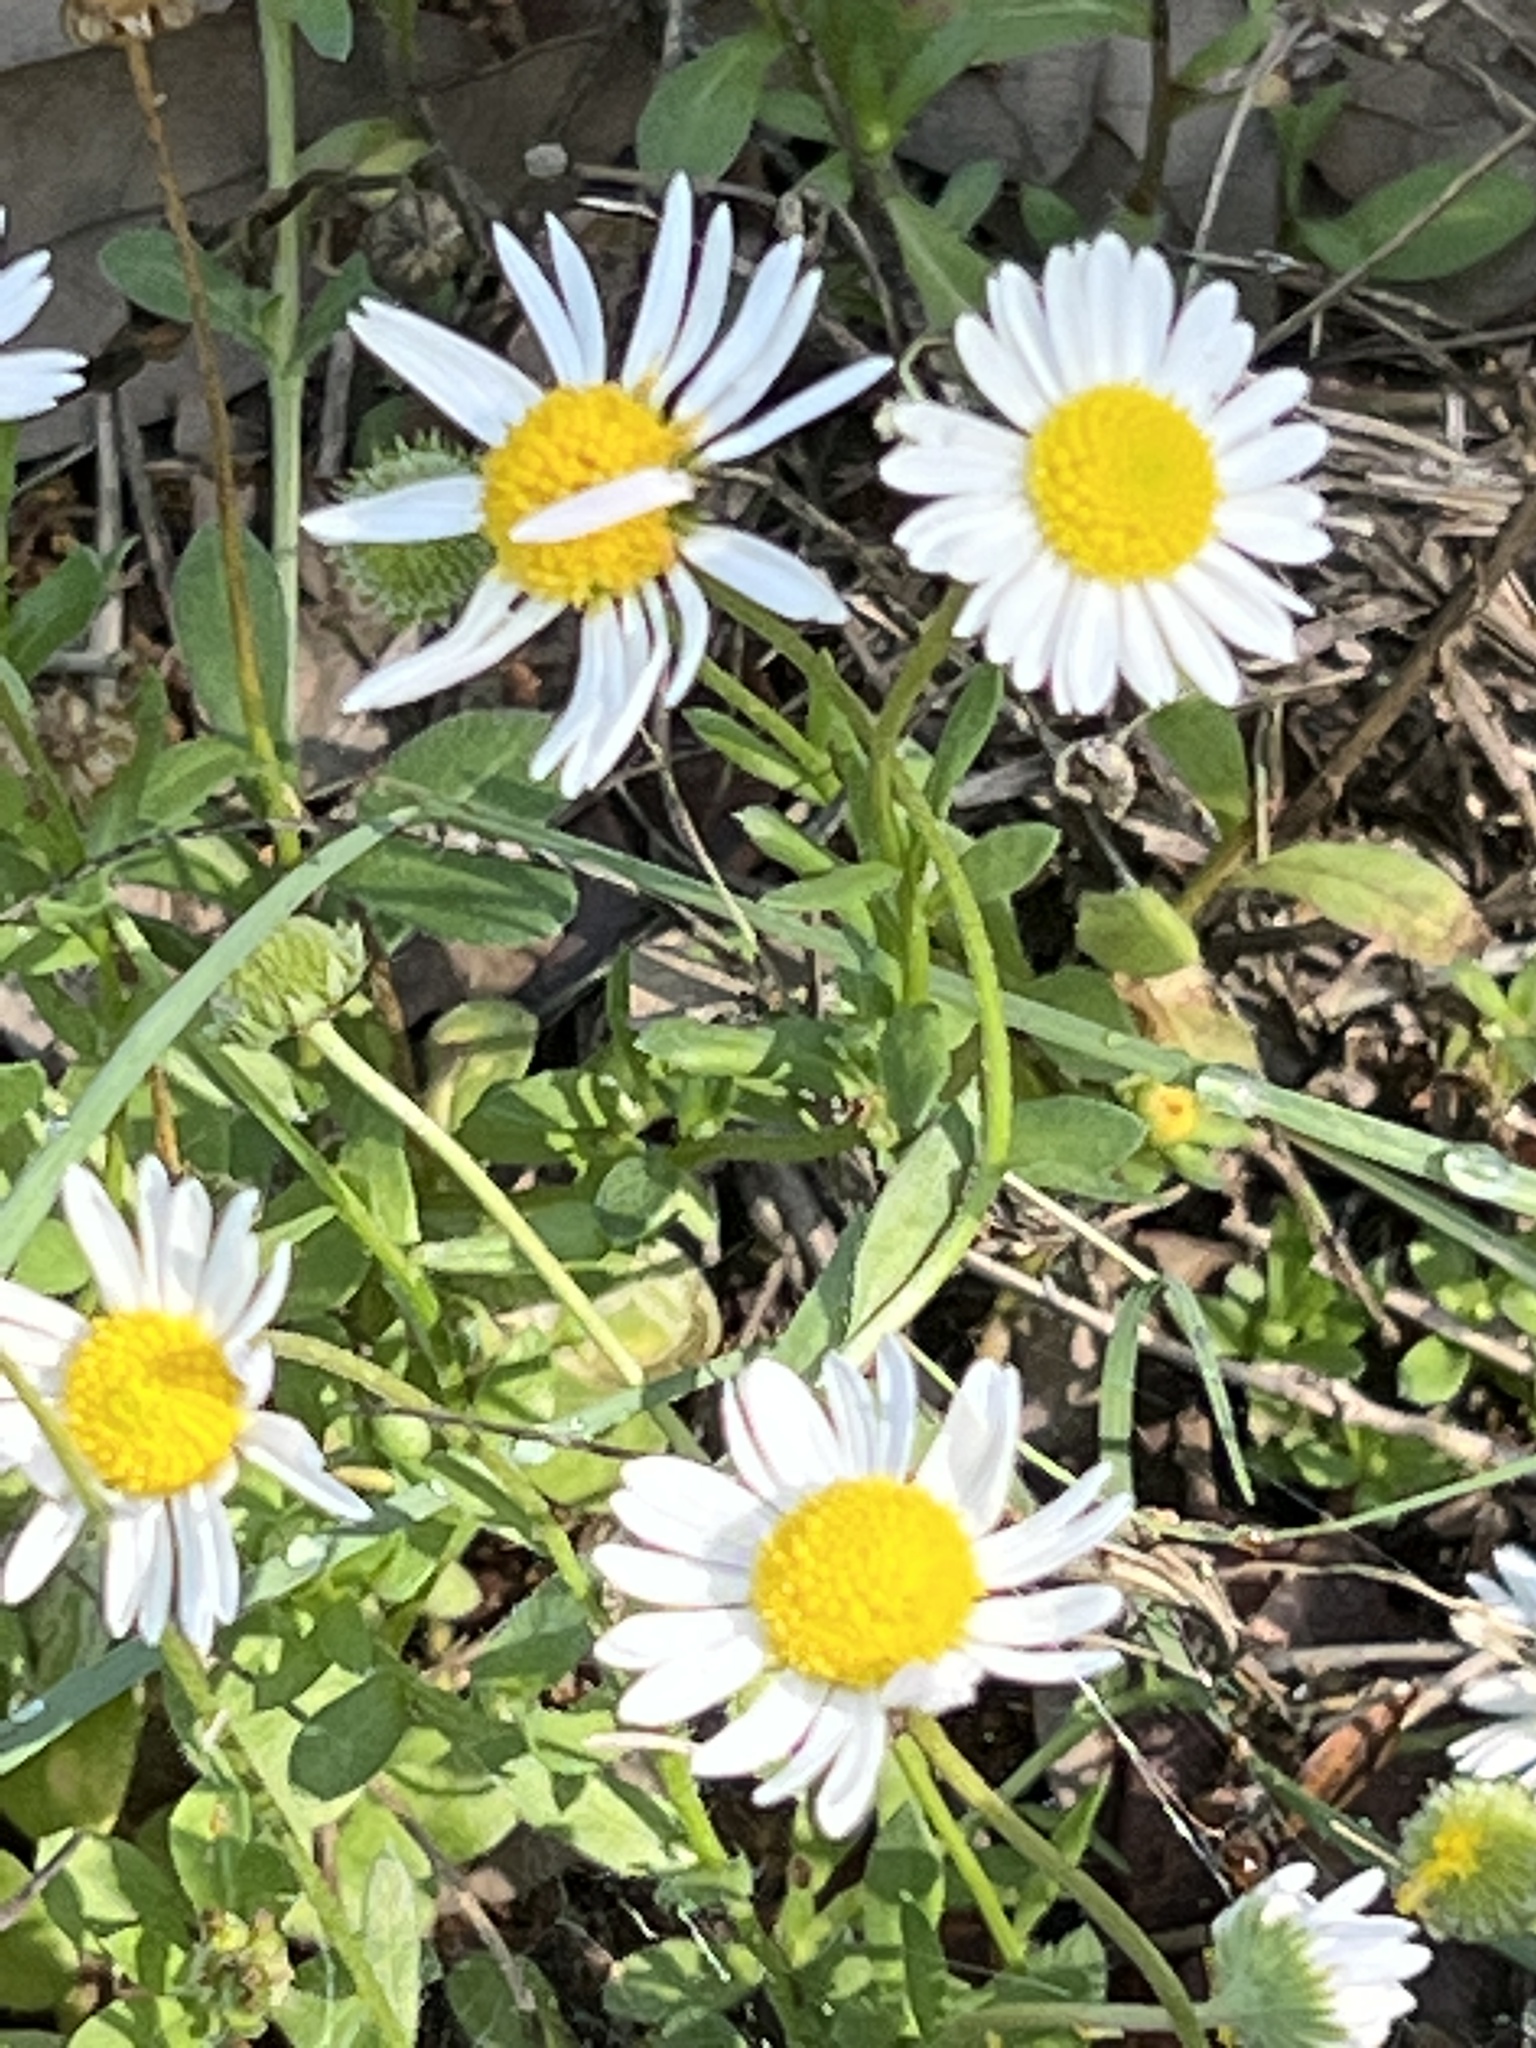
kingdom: Plantae
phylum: Tracheophyta
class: Magnoliopsida
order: Asterales
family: Asteraceae
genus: Aphanostephus
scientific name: Aphanostephus ramosissimus
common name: Plains lazy daisy
